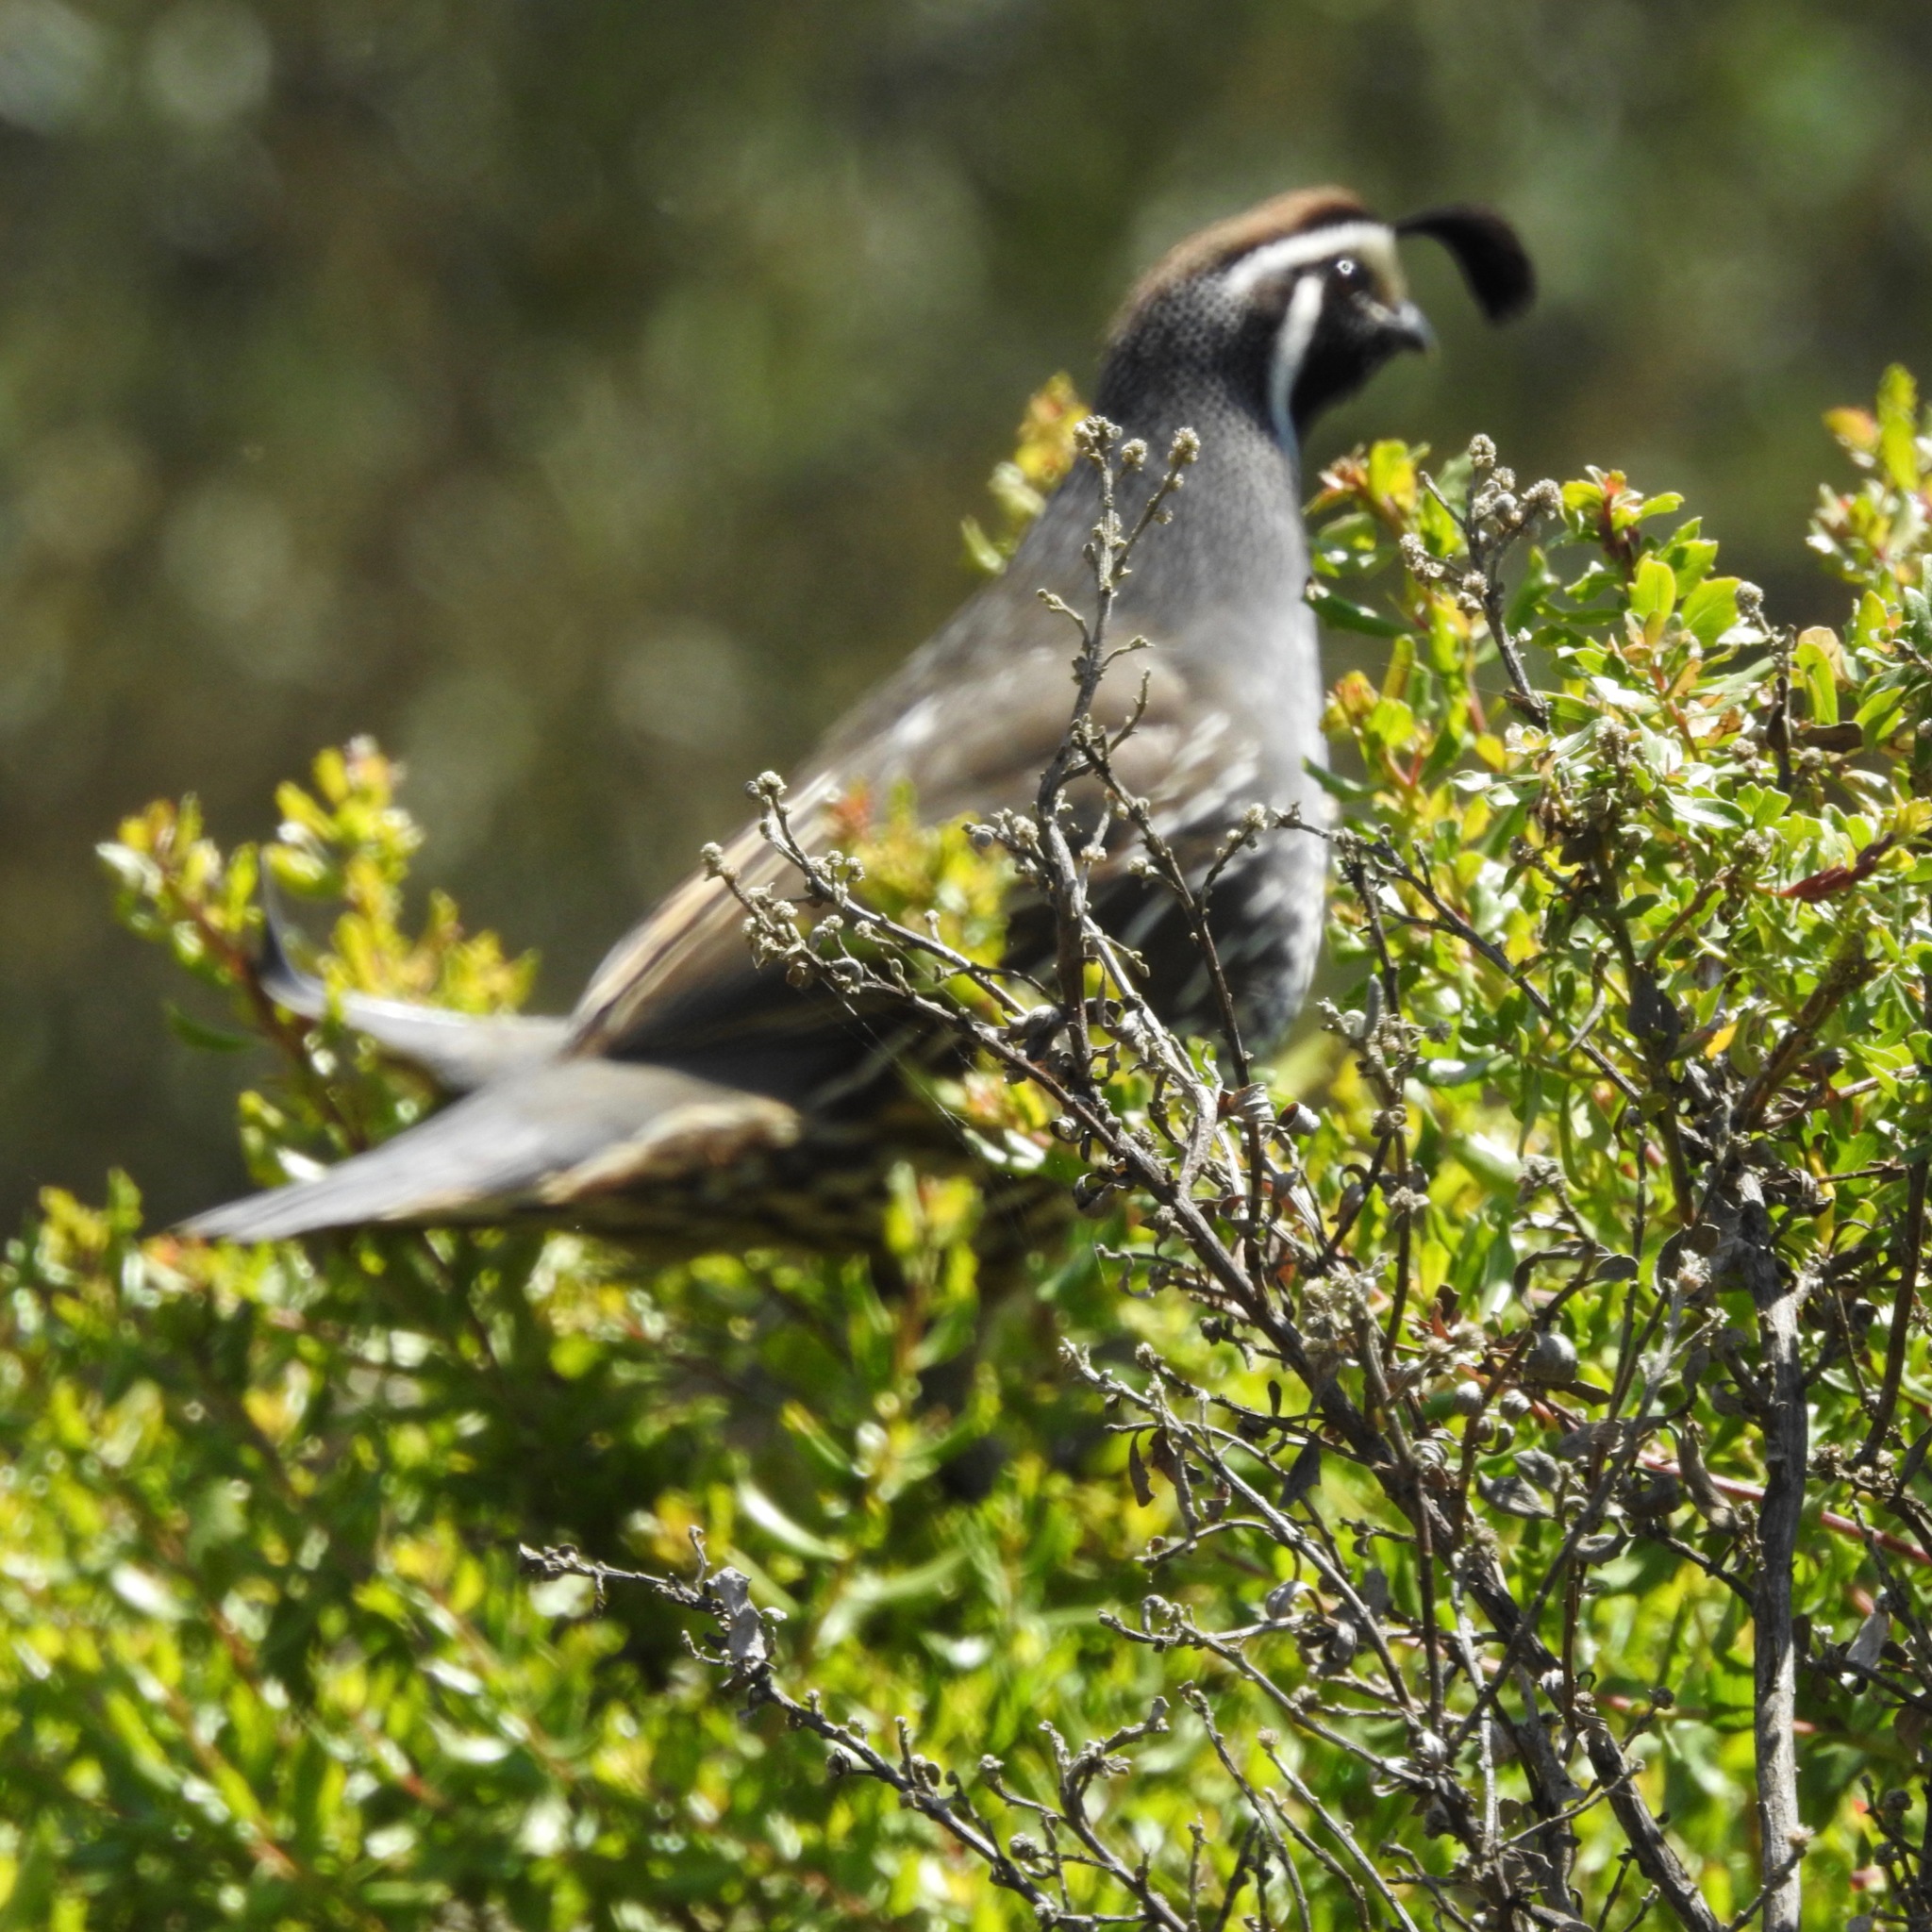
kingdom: Animalia
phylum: Chordata
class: Aves
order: Galliformes
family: Odontophoridae
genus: Callipepla
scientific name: Callipepla californica
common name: California quail
